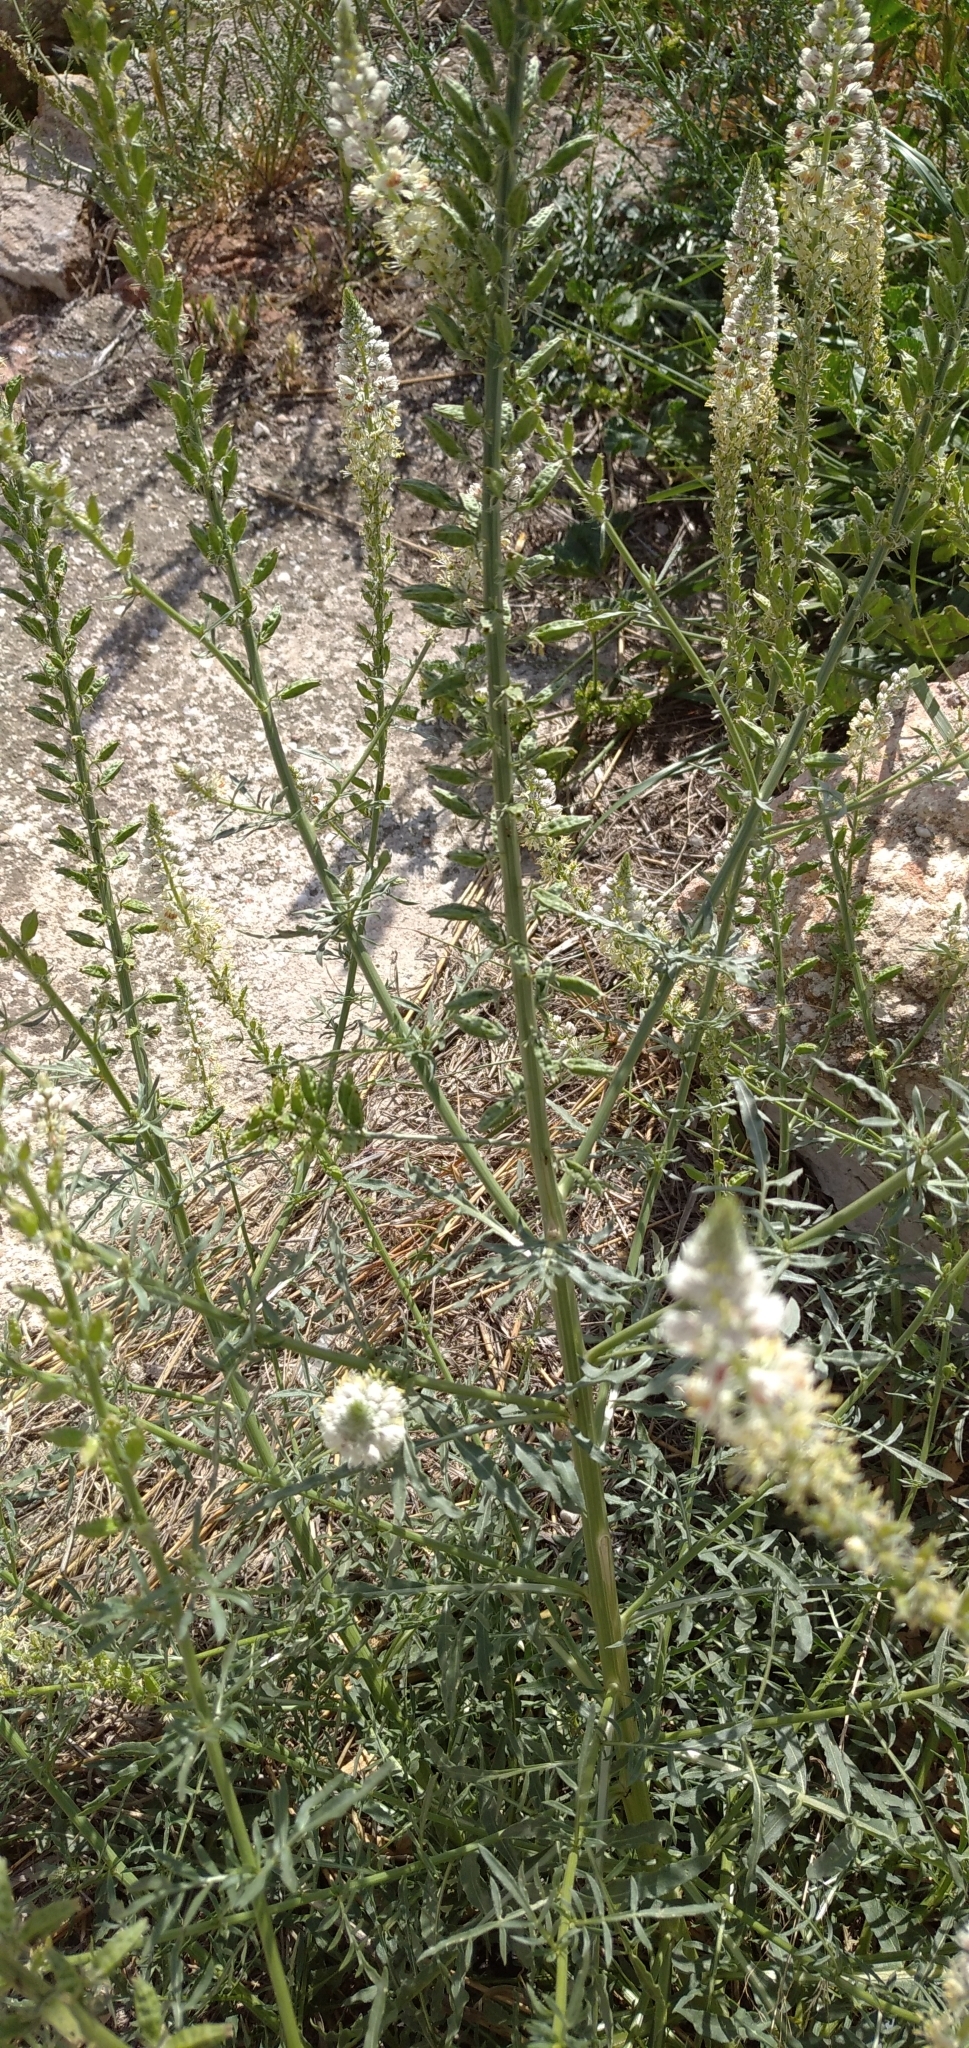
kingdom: Plantae
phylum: Tracheophyta
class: Magnoliopsida
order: Brassicales
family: Resedaceae
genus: Reseda
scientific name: Reseda alba
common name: White mignonette
